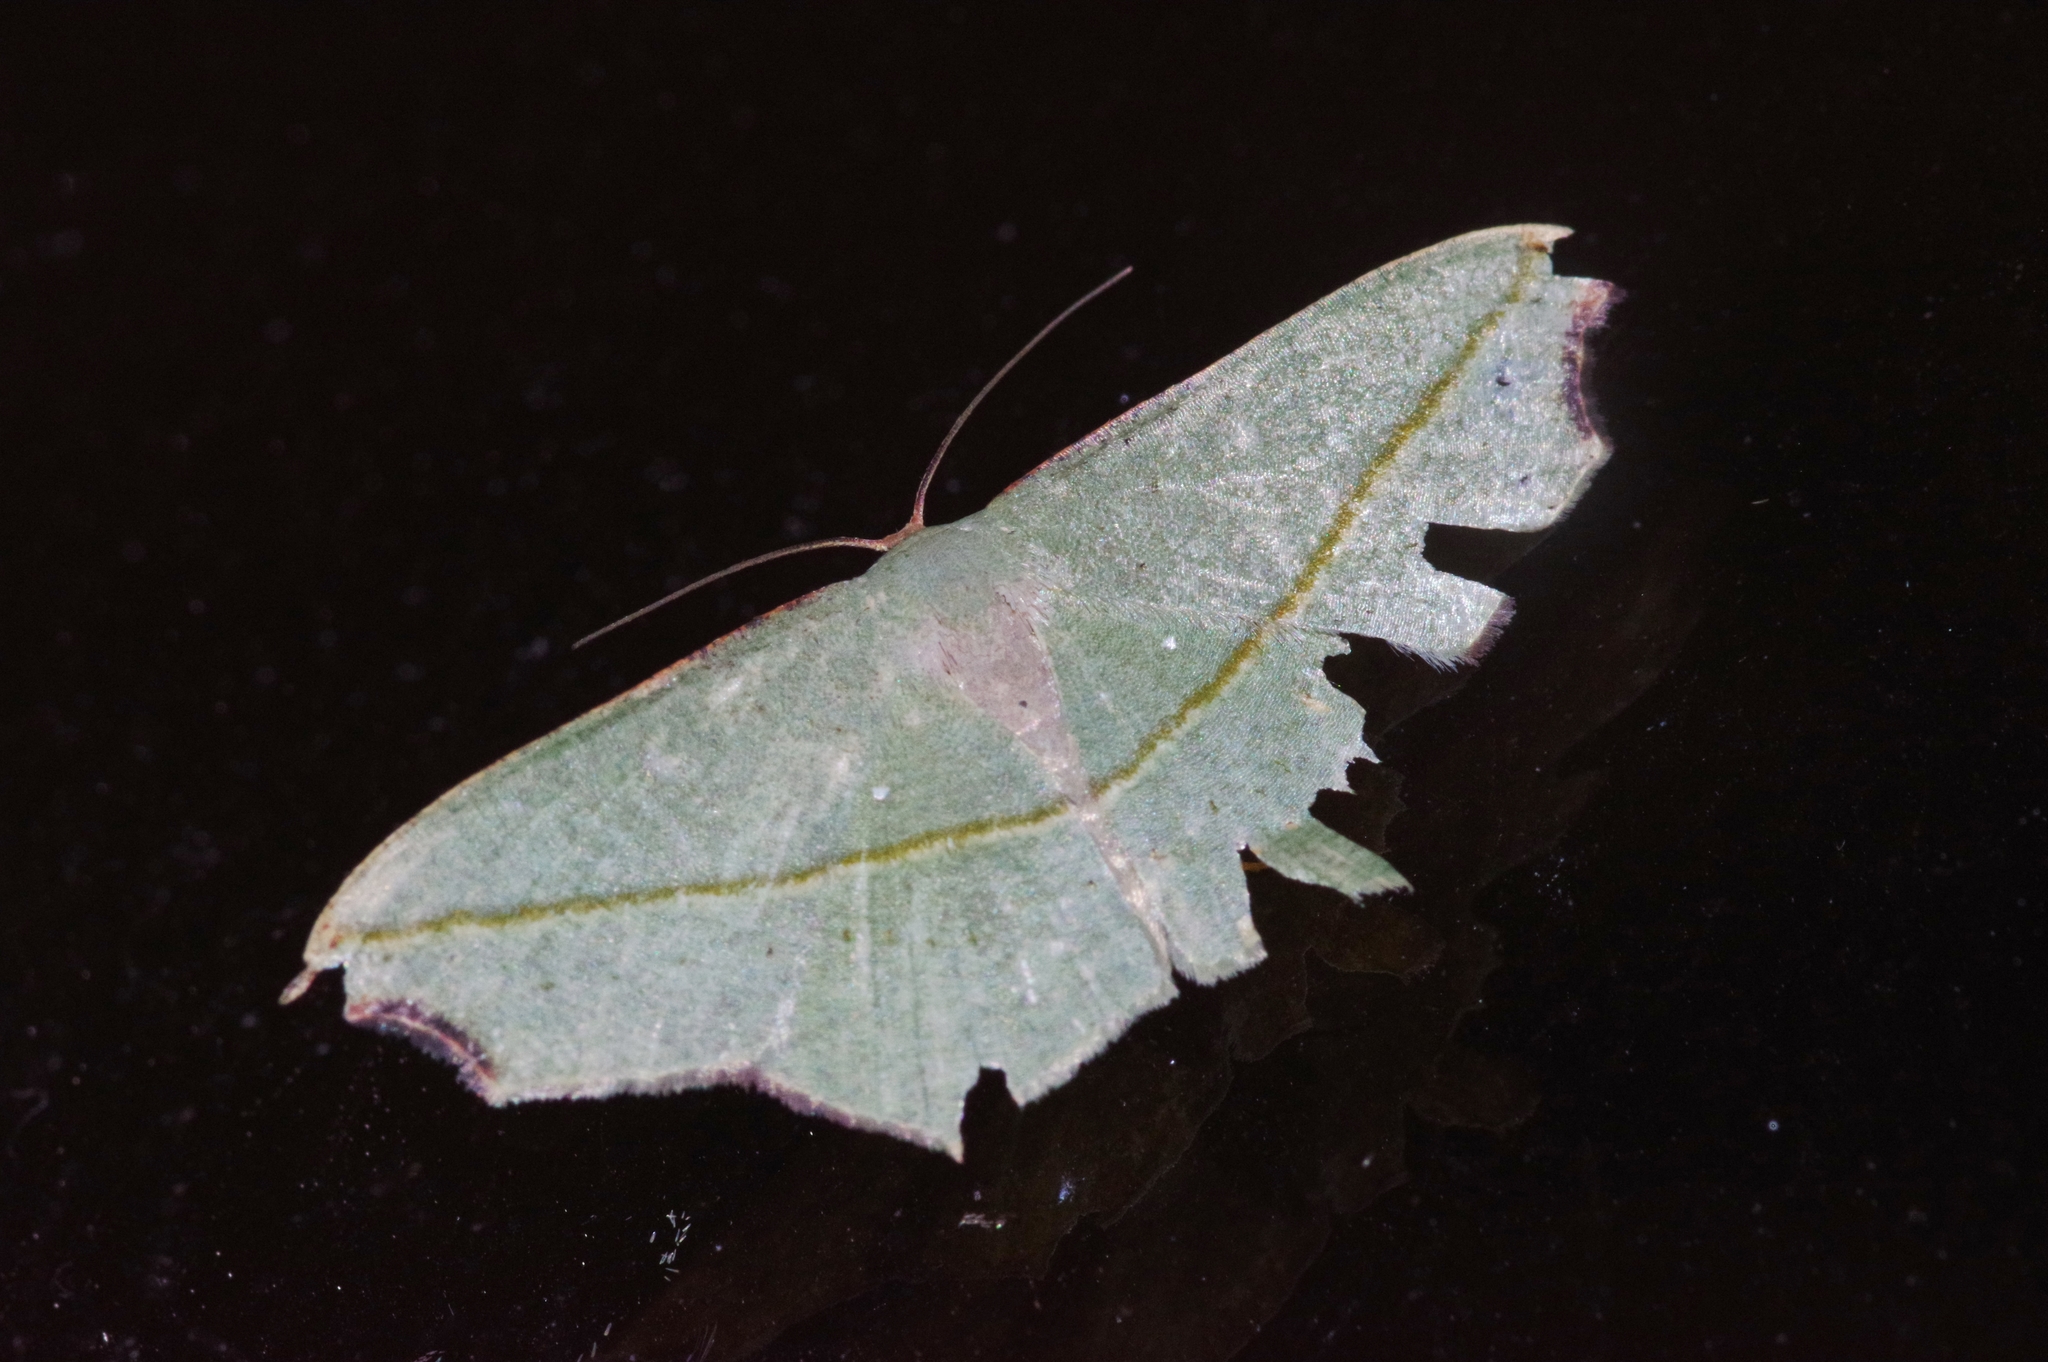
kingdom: Animalia
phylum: Arthropoda
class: Insecta
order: Lepidoptera
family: Geometridae
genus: Traminda
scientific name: Traminda aventiaria
